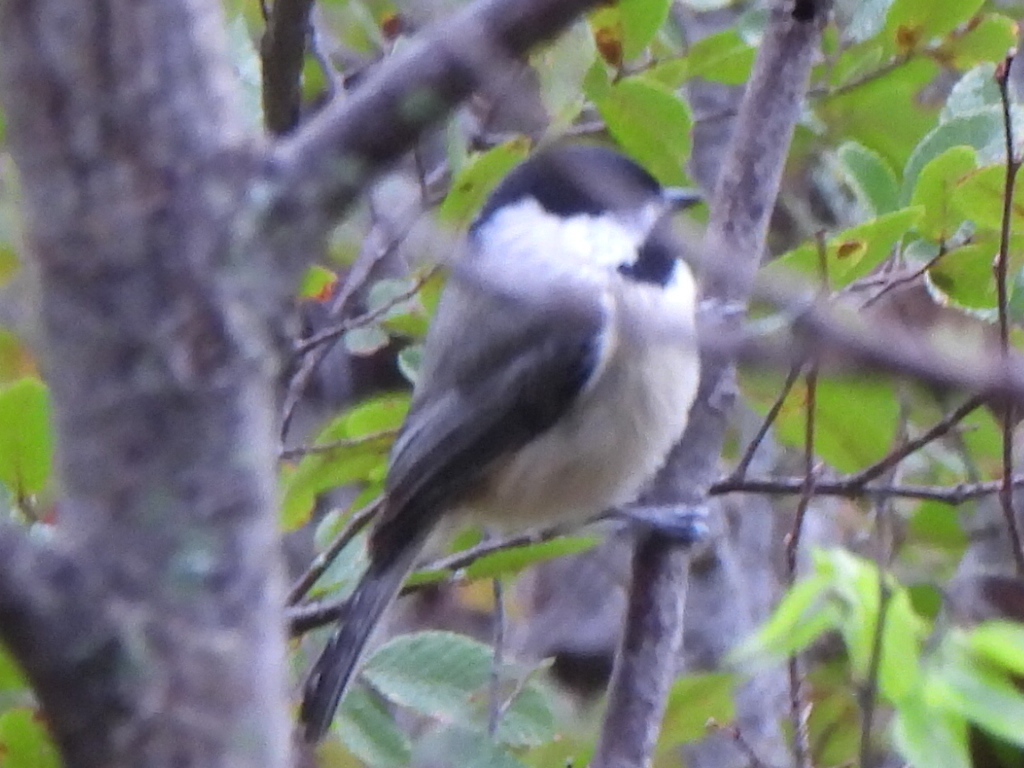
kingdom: Animalia
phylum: Chordata
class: Aves
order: Passeriformes
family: Paridae
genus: Poecile
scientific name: Poecile carolinensis
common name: Carolina chickadee
